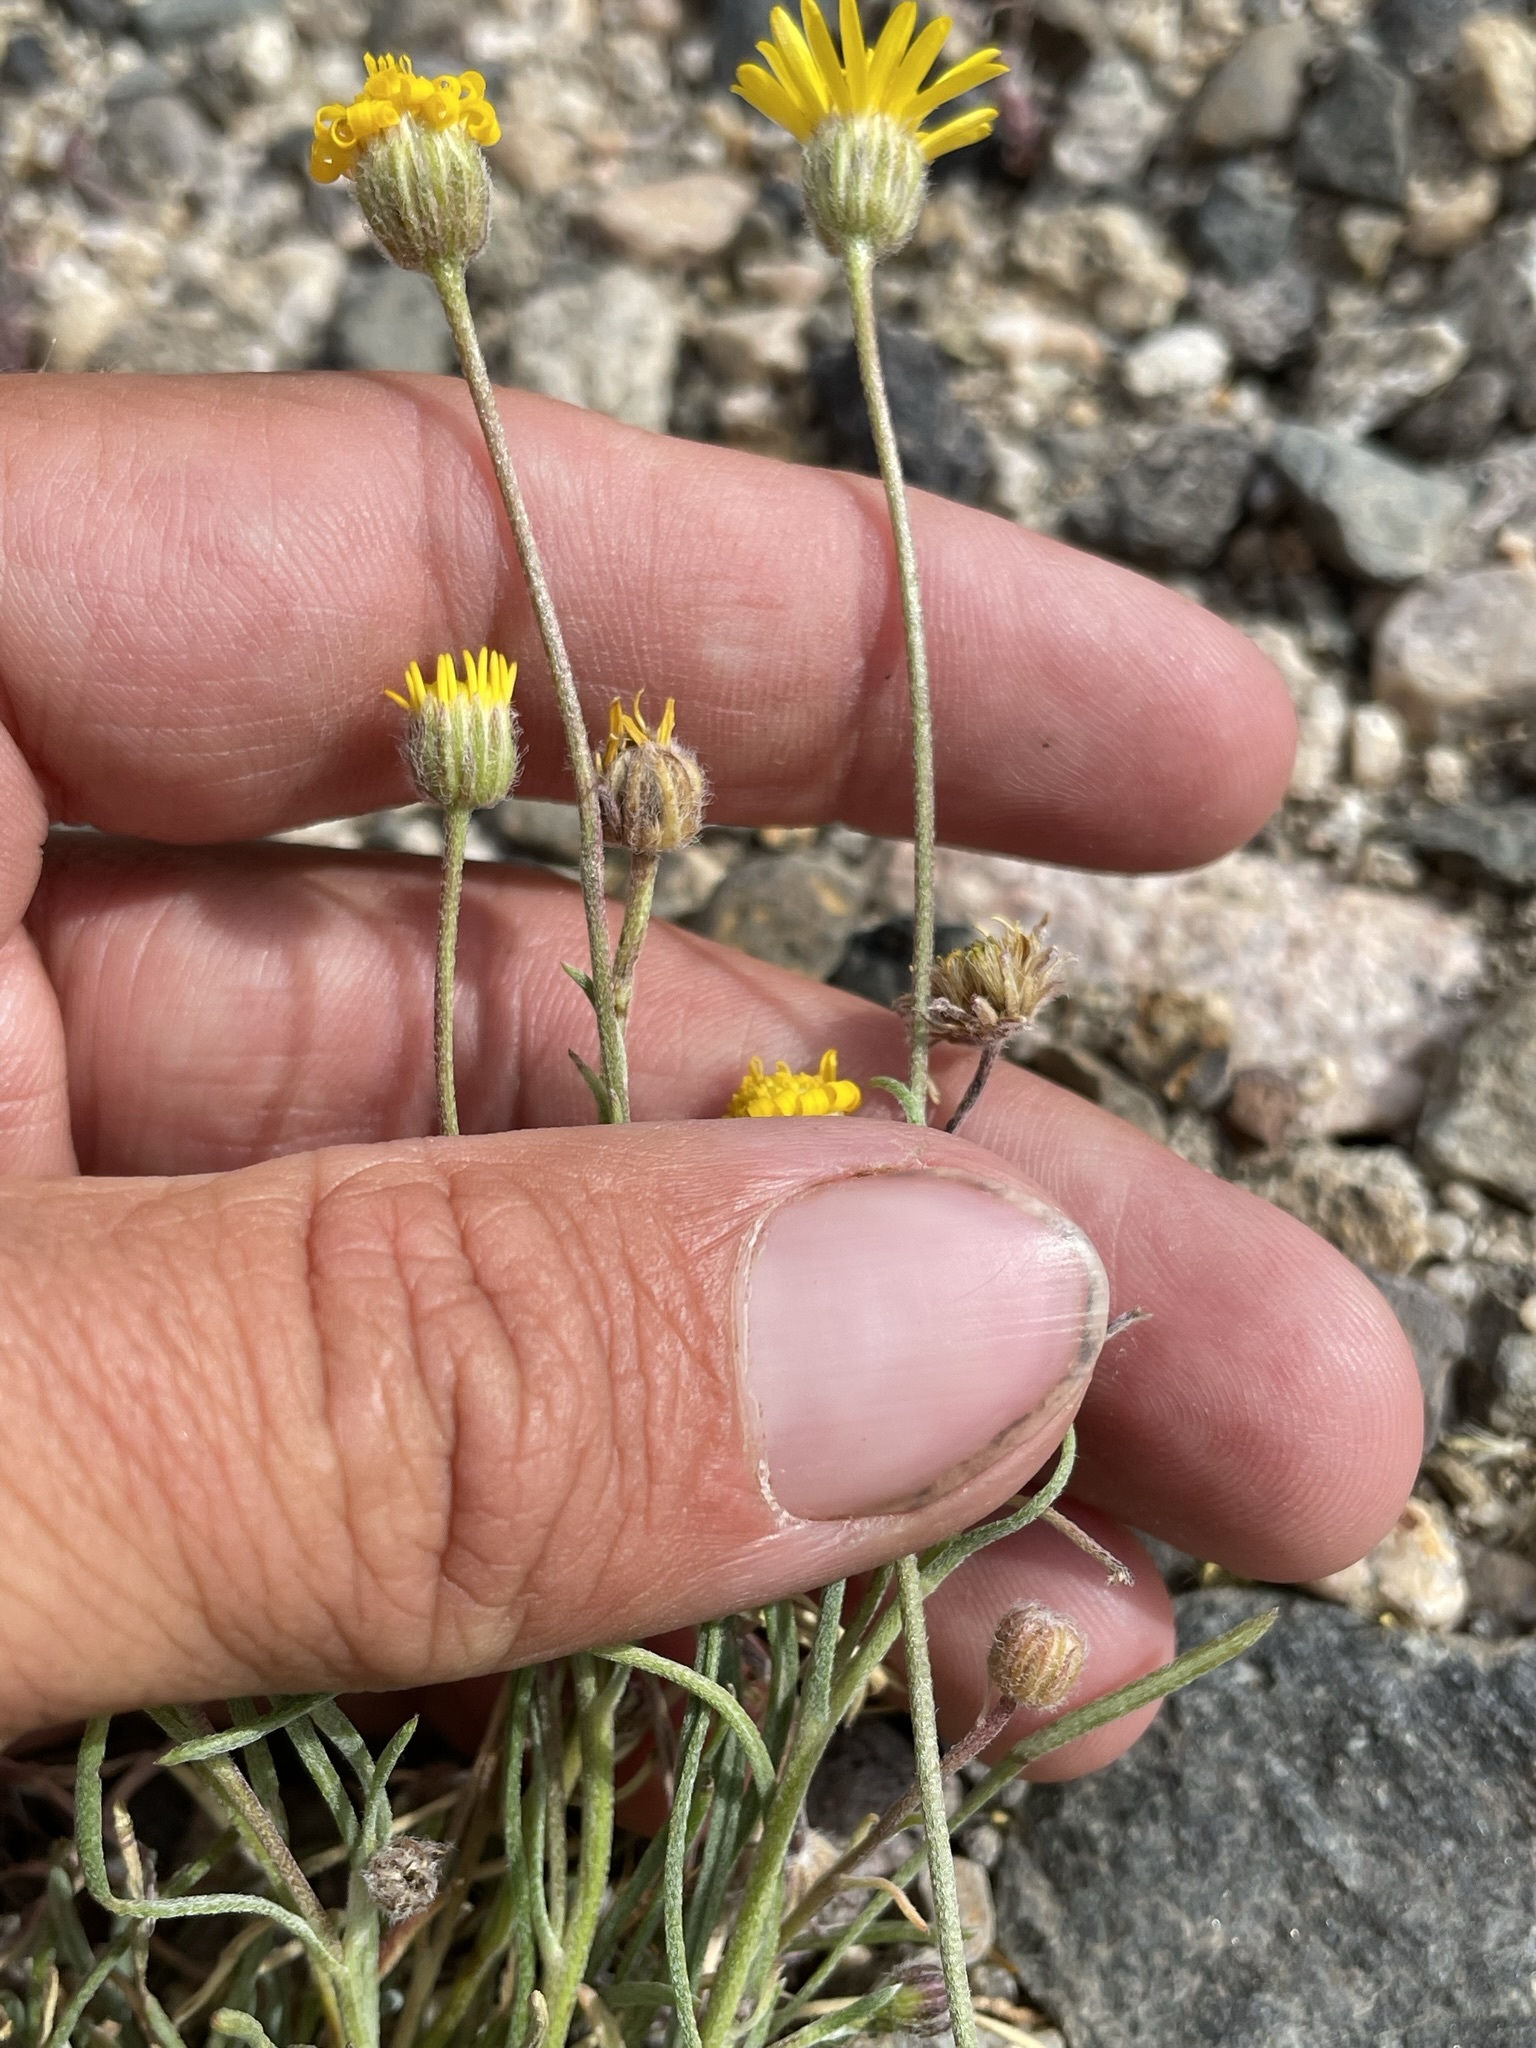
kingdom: Plantae
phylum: Tracheophyta
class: Magnoliopsida
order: Asterales
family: Asteraceae
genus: Erigeron
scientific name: Erigeron linearis
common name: Desert yellow fleabane
